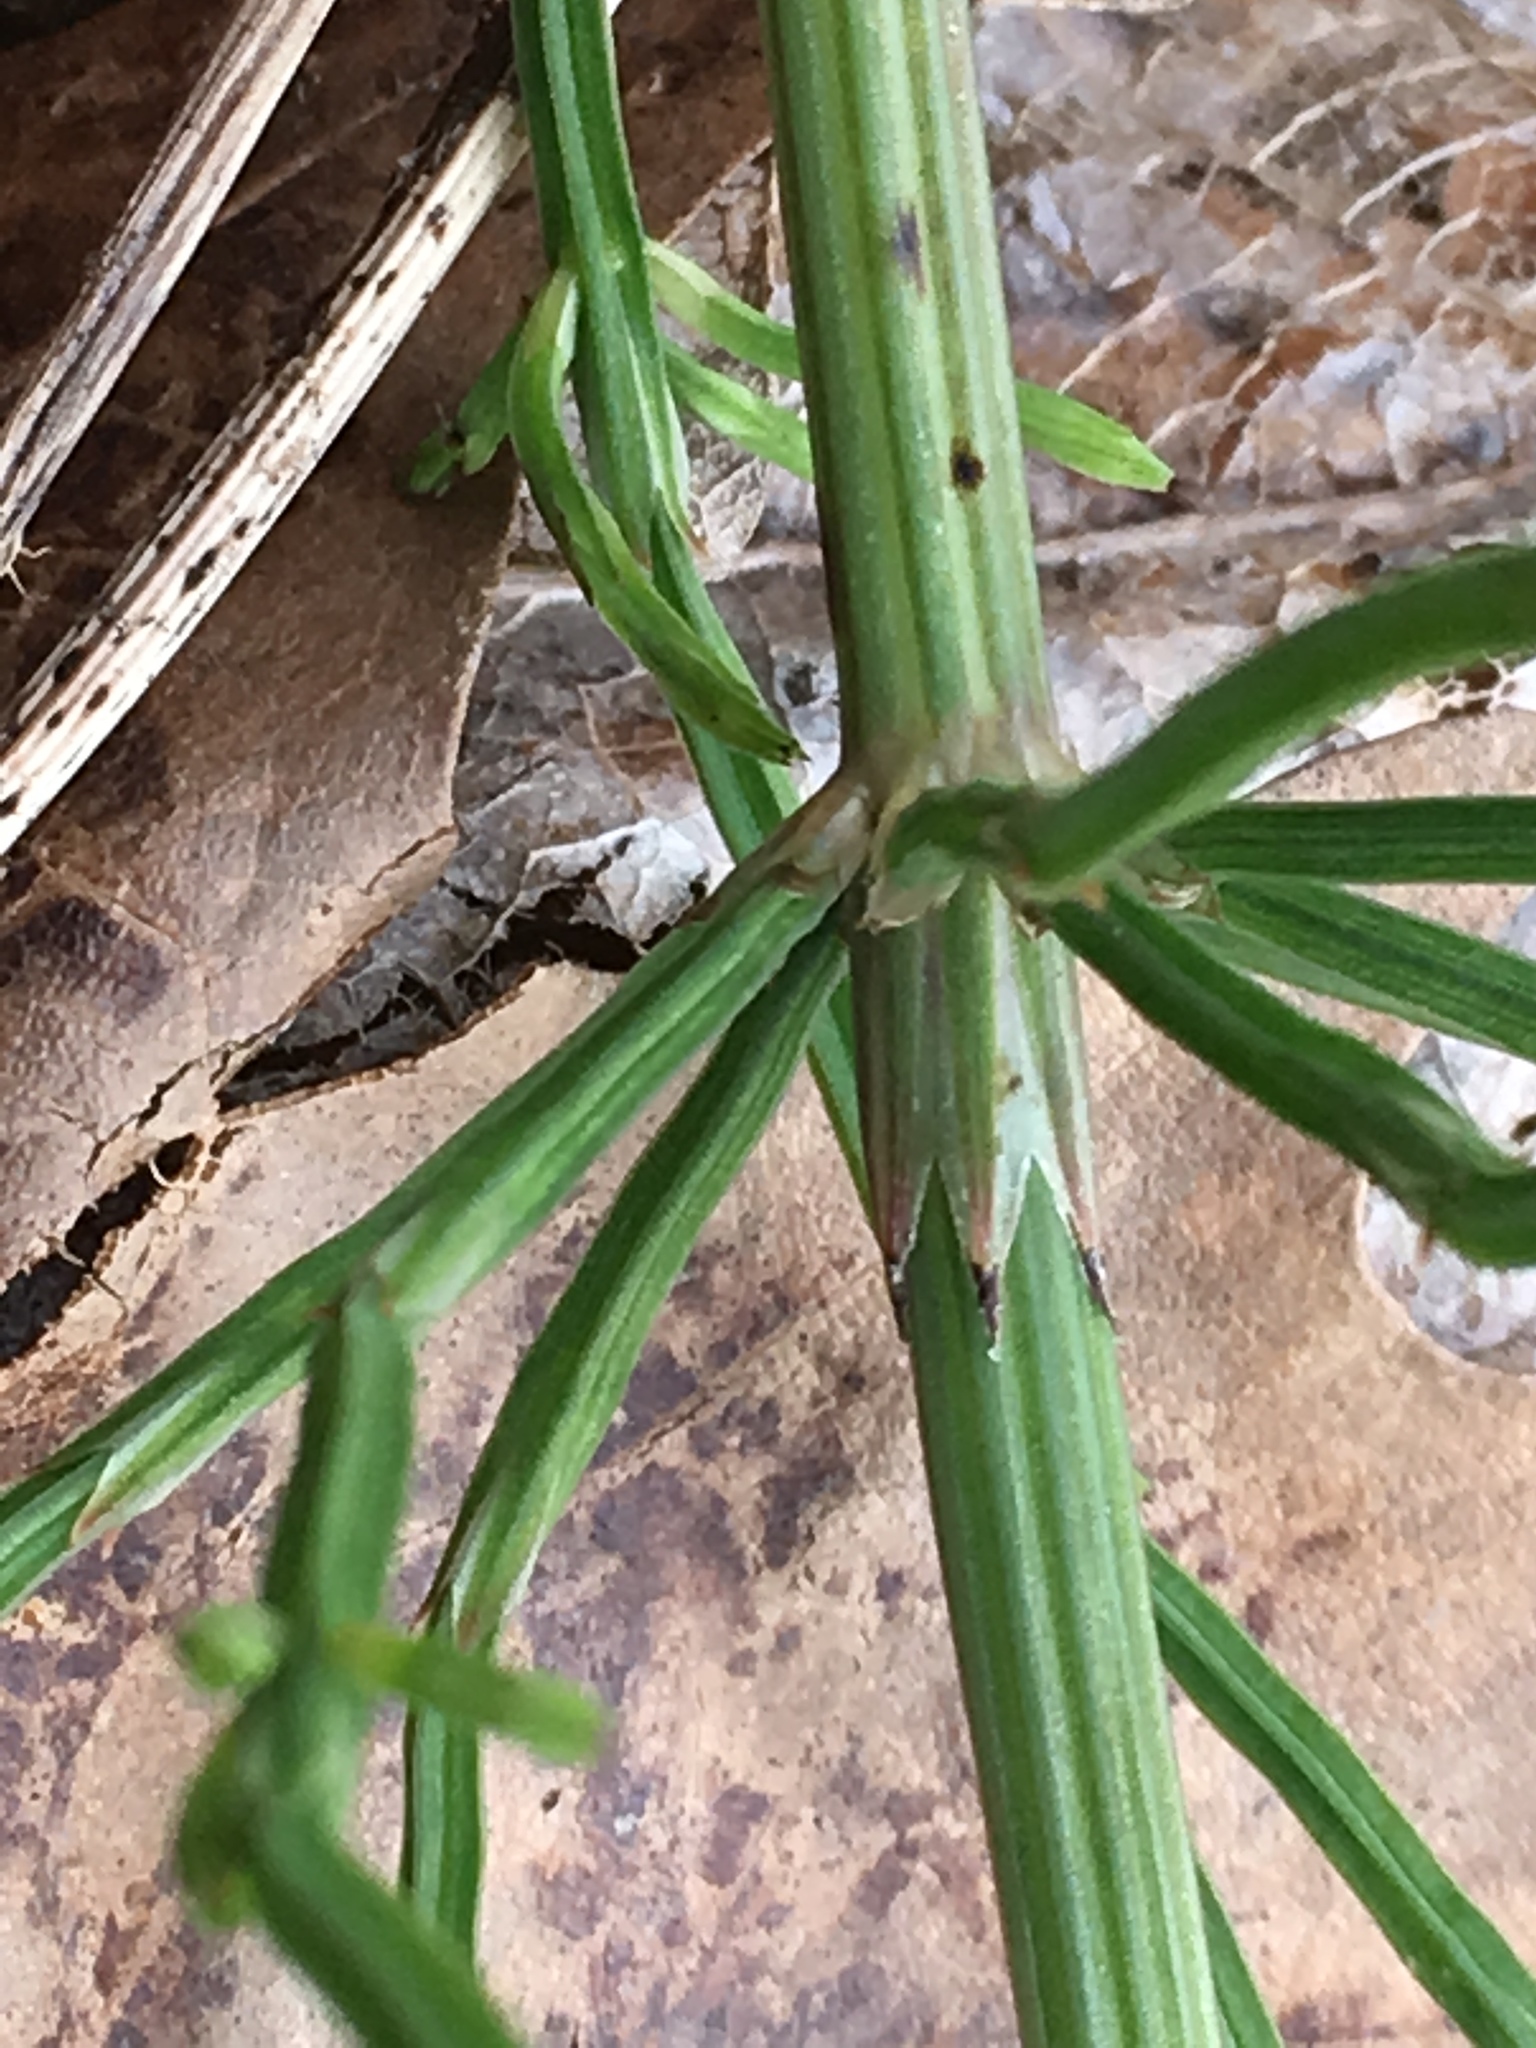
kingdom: Plantae
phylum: Tracheophyta
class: Polypodiopsida
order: Equisetales
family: Equisetaceae
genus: Equisetum
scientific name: Equisetum arvense
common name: Field horsetail
